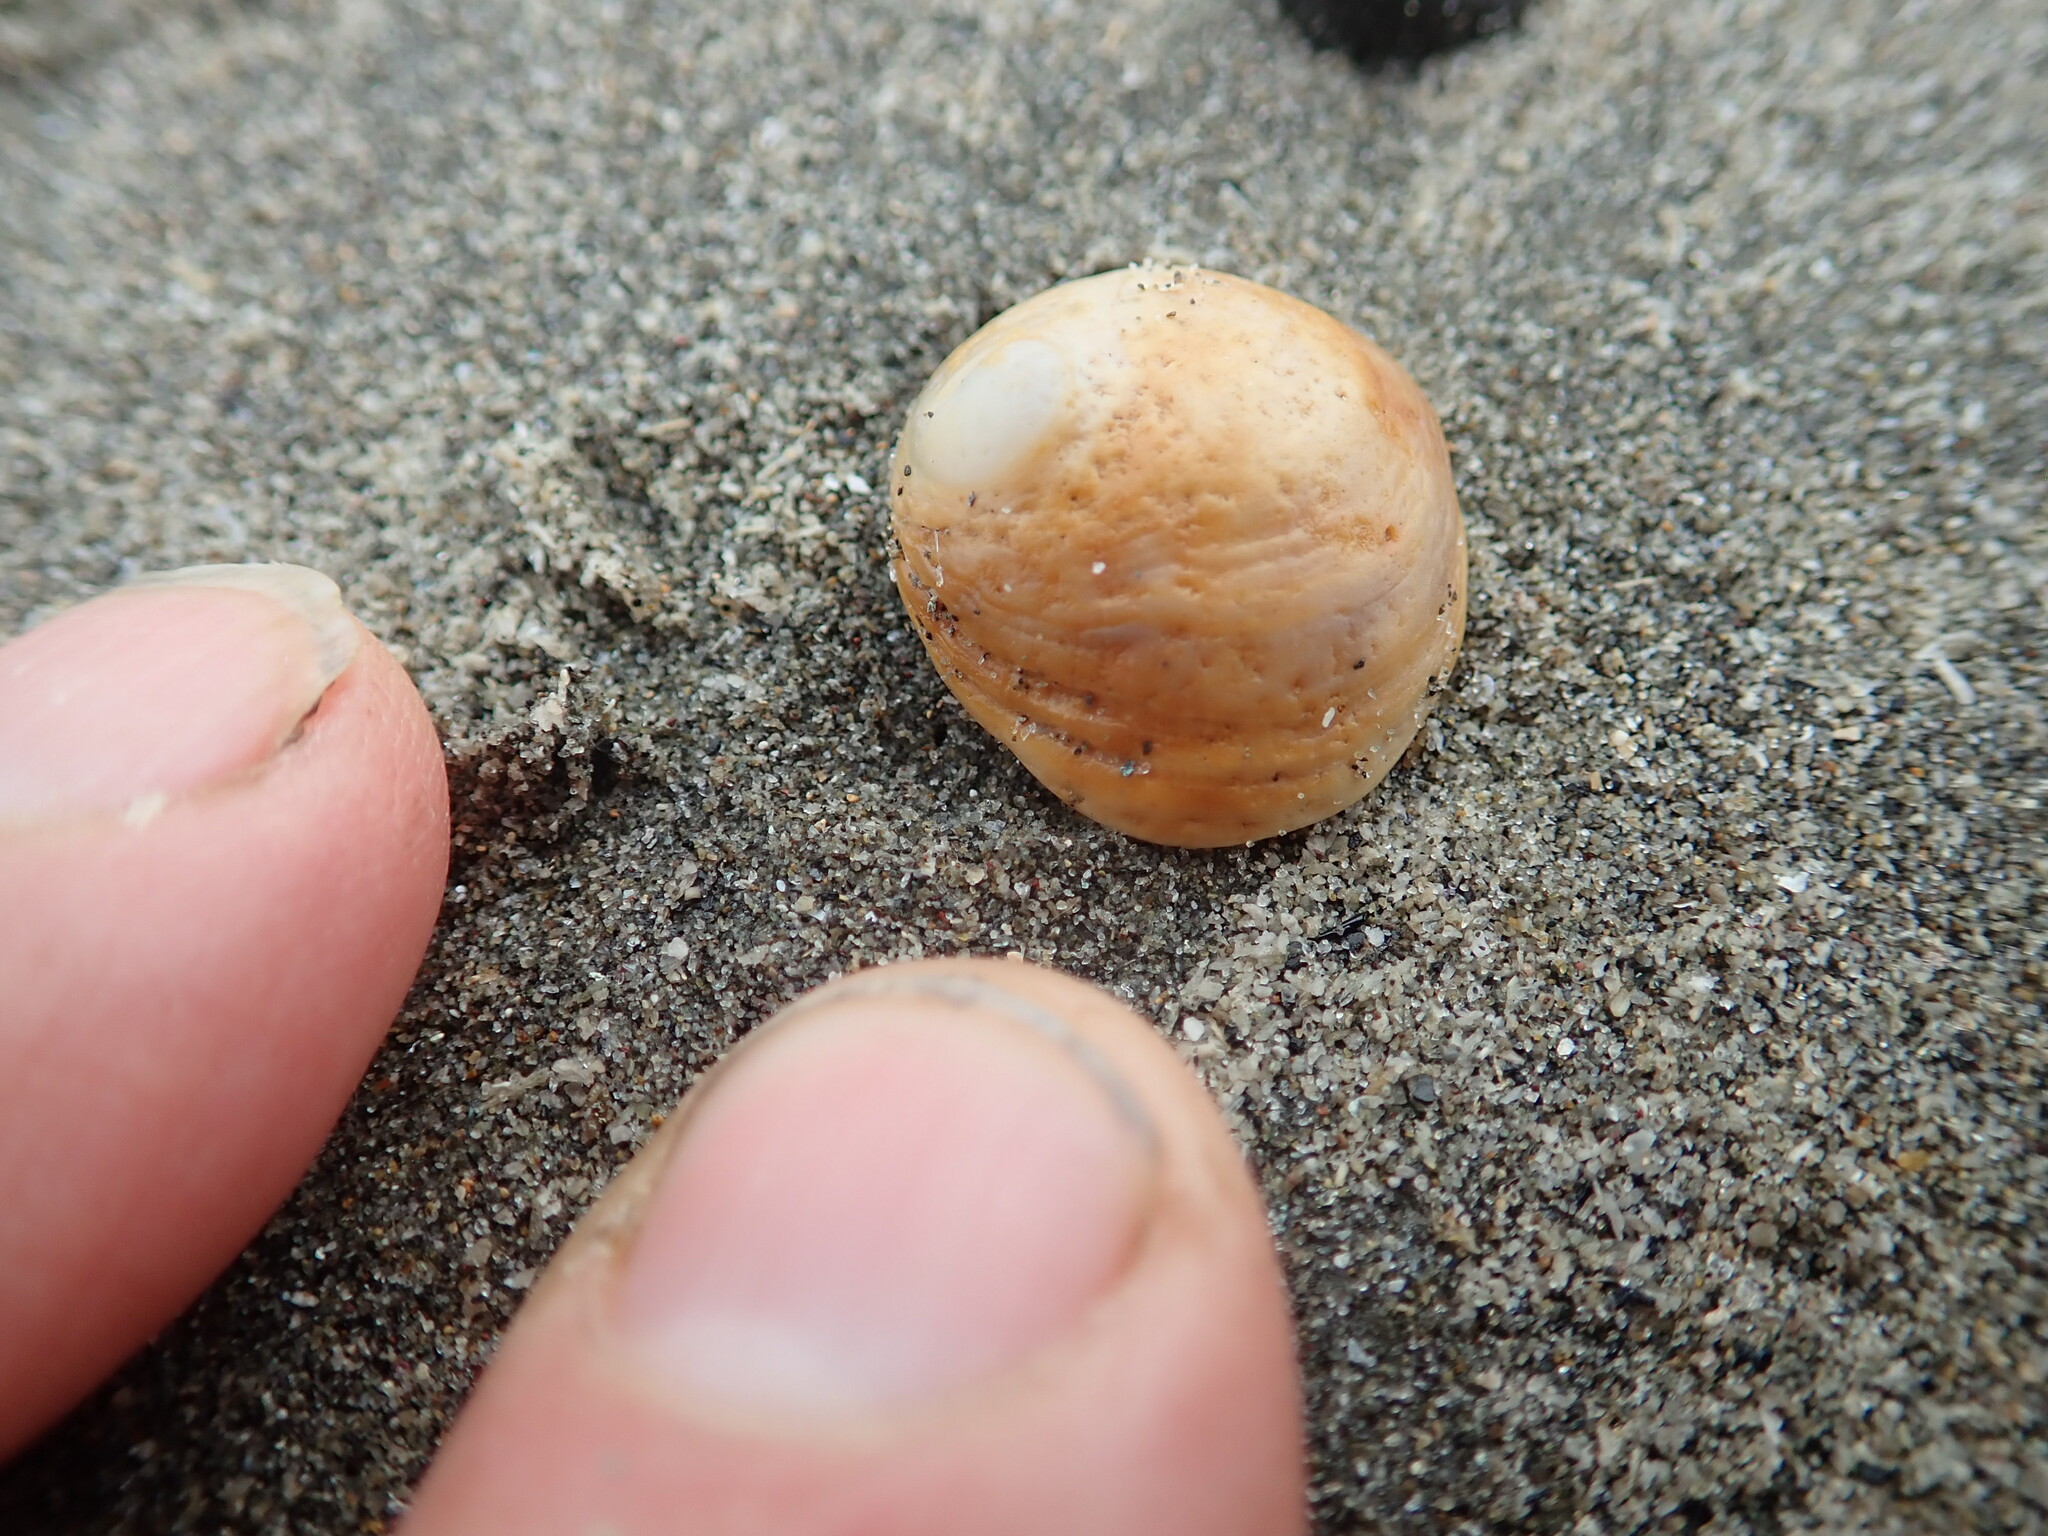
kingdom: Animalia
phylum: Mollusca
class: Gastropoda
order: Littorinimorpha
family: Calyptraeidae
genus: Sigapatella
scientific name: Sigapatella novaezelandiae
